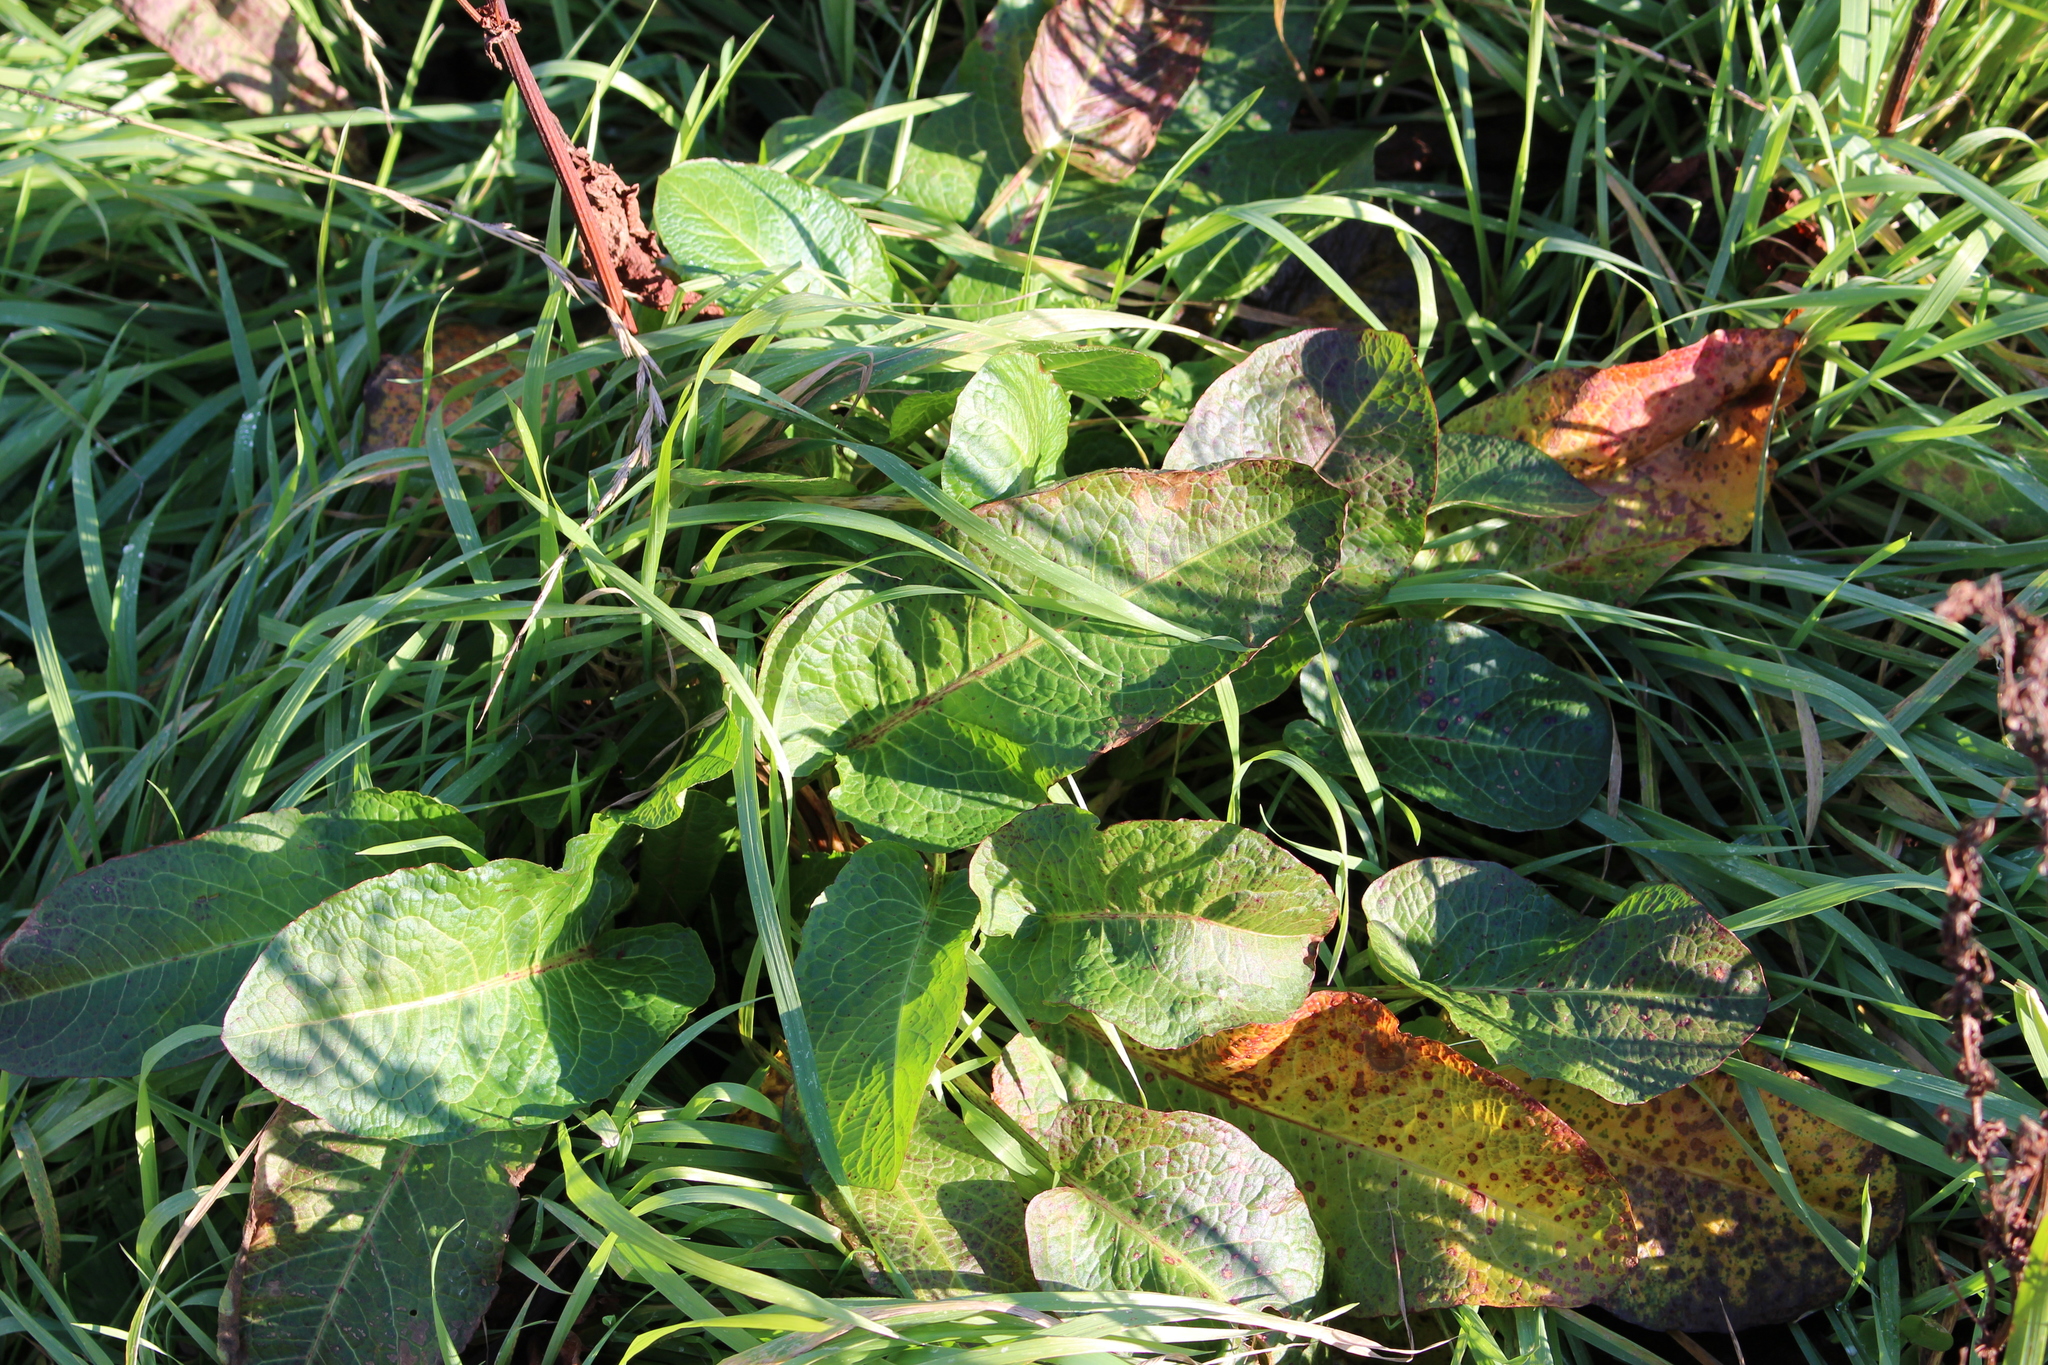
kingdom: Plantae
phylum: Tracheophyta
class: Magnoliopsida
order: Caryophyllales
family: Polygonaceae
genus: Rumex
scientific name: Rumex obtusifolius
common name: Bitter dock
